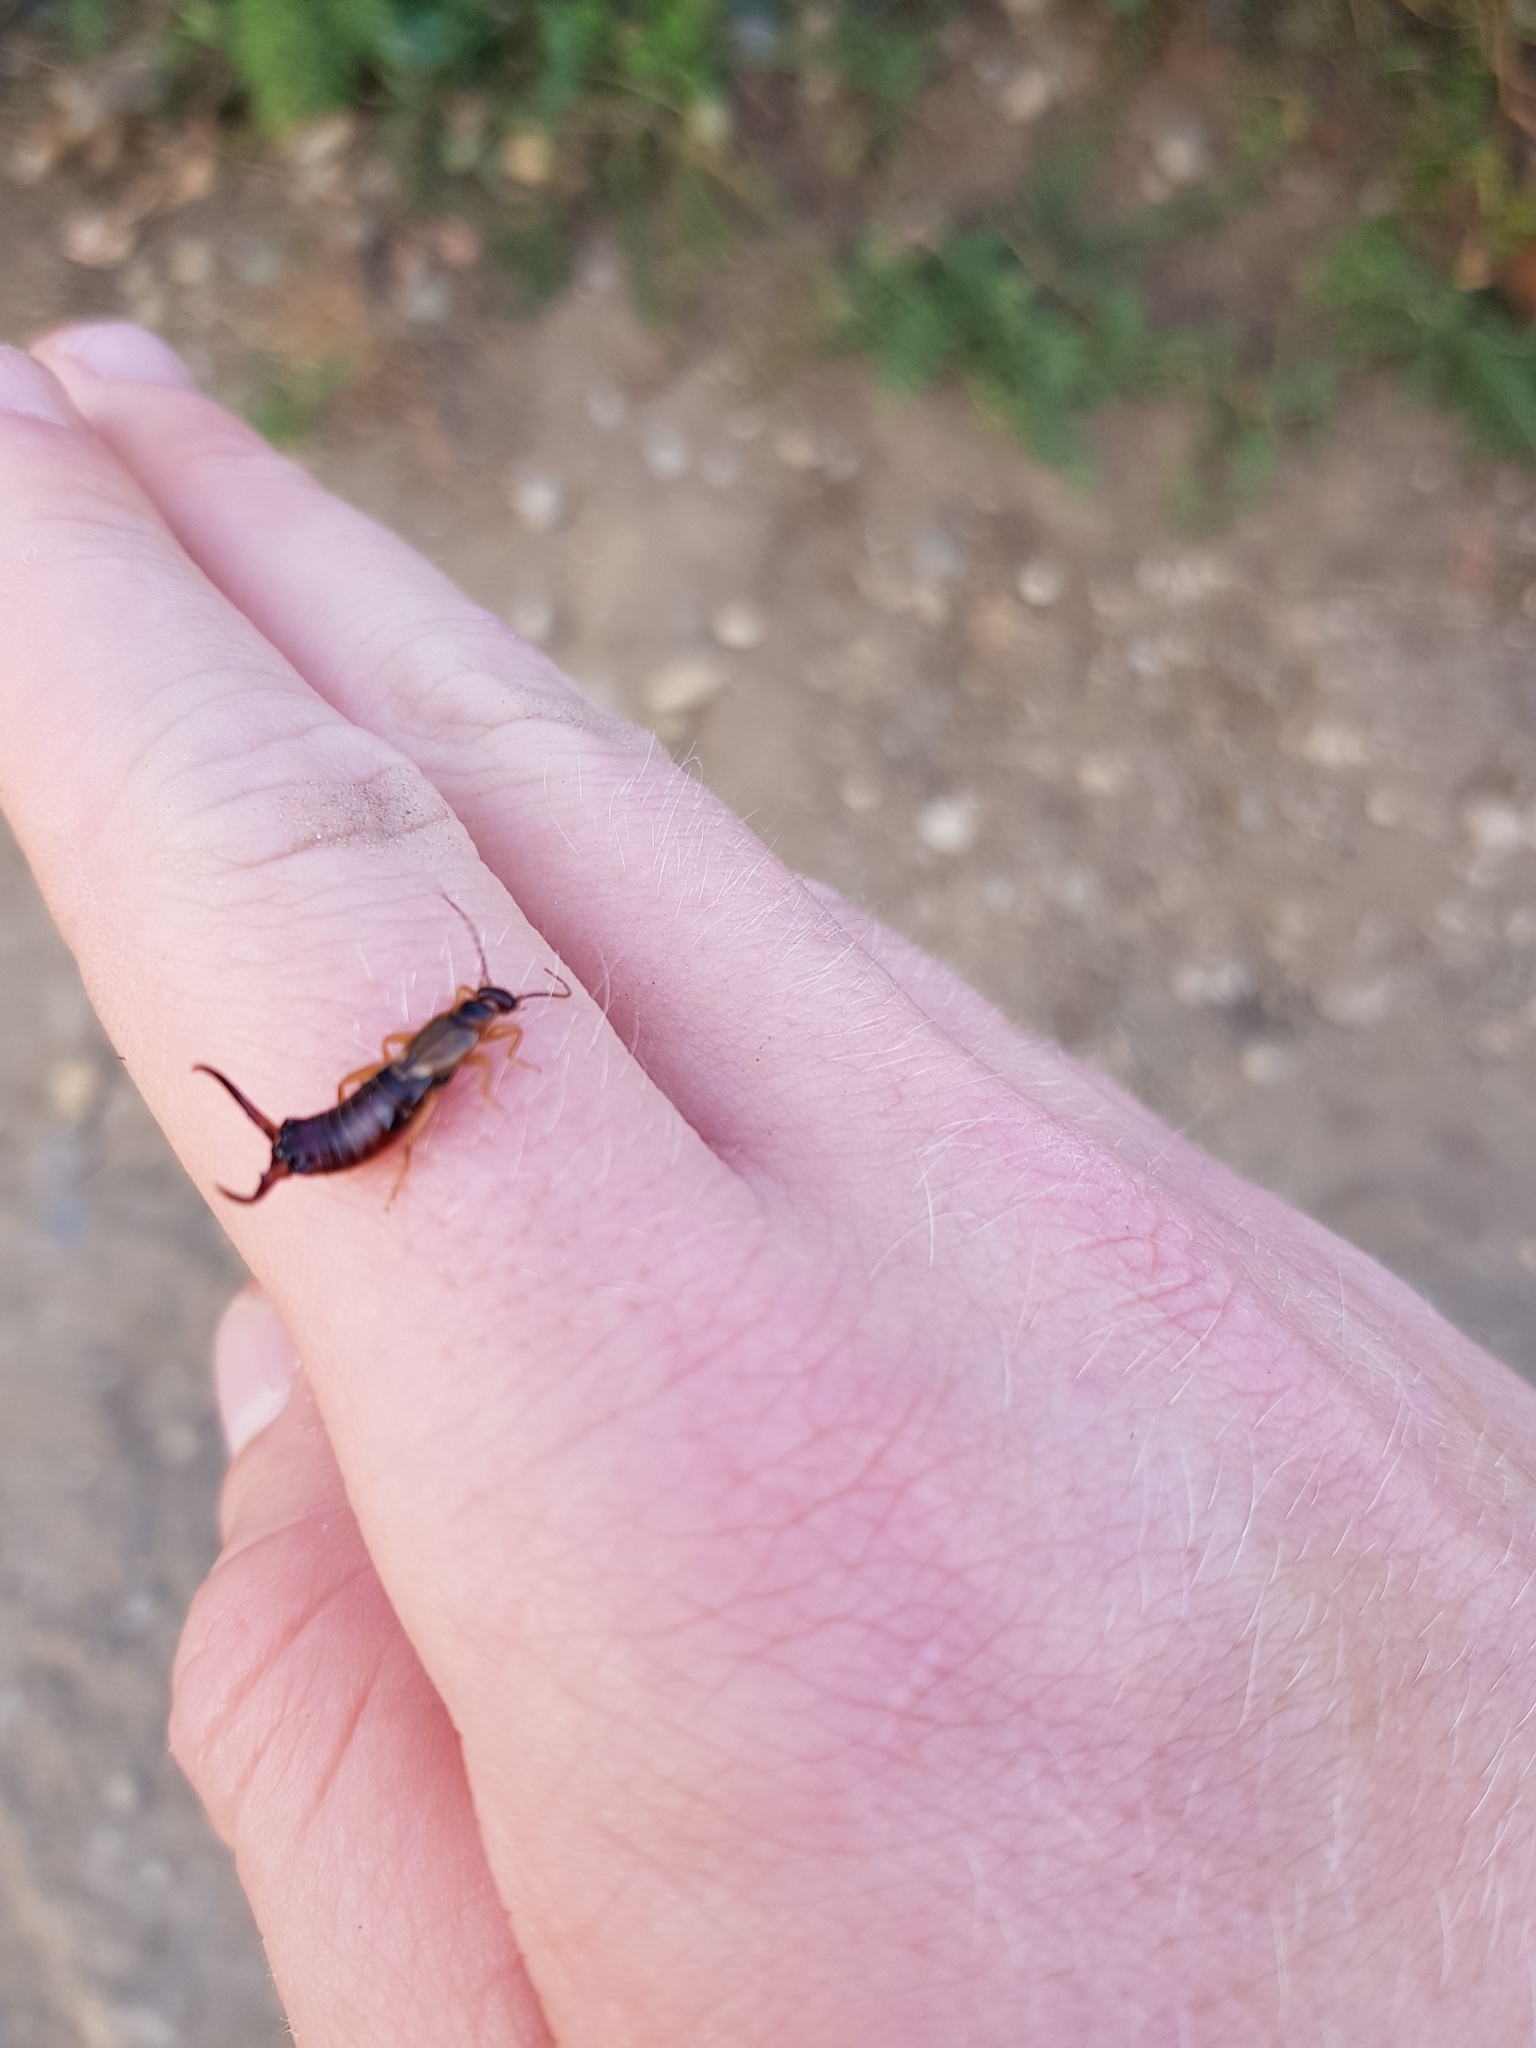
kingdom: Animalia
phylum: Arthropoda
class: Insecta
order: Dermaptera
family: Forficulidae
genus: Forficula
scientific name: Forficula
